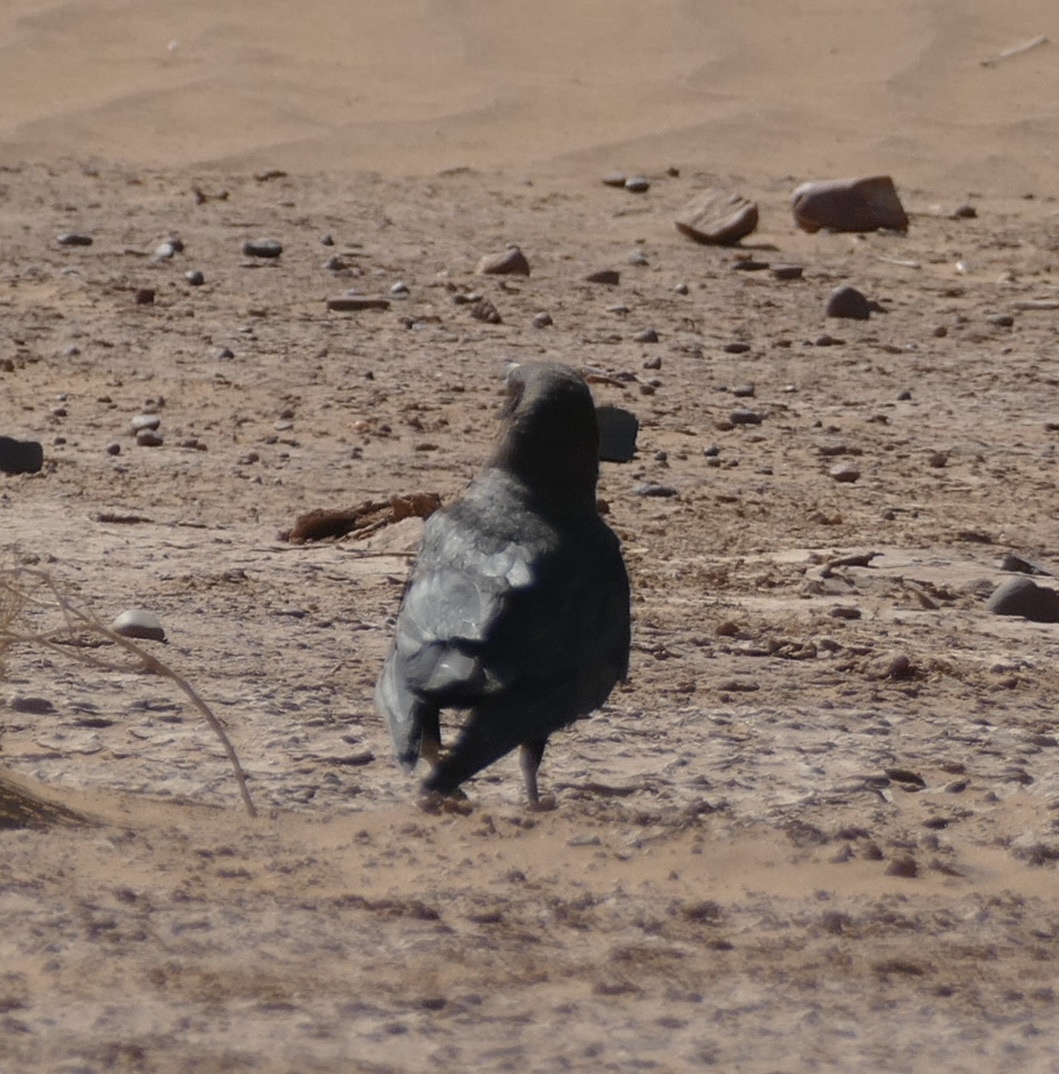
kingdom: Animalia
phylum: Chordata
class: Aves
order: Passeriformes
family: Corvidae
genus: Corvus
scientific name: Corvus ruficollis
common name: Brown-necked raven
